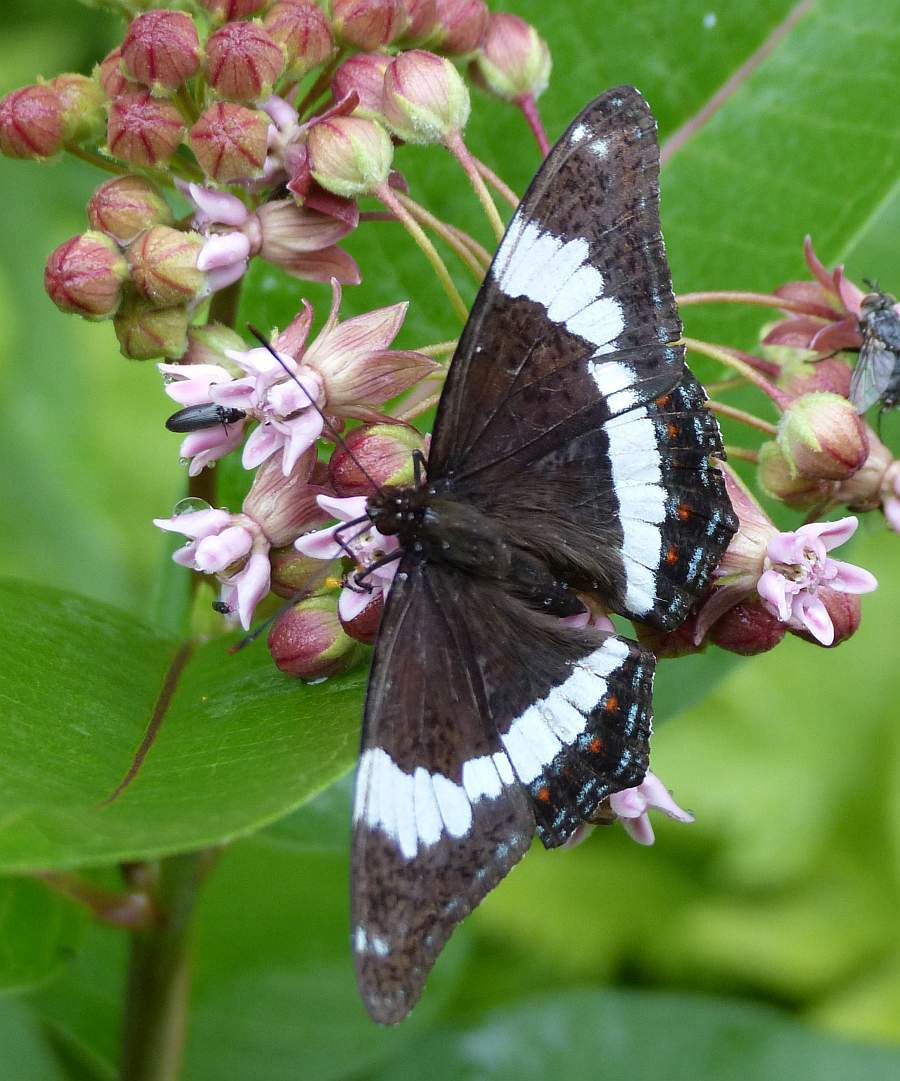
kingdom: Animalia
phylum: Arthropoda
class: Insecta
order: Lepidoptera
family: Nymphalidae
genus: Limenitis
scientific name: Limenitis arthemis
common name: Red-spotted admiral
